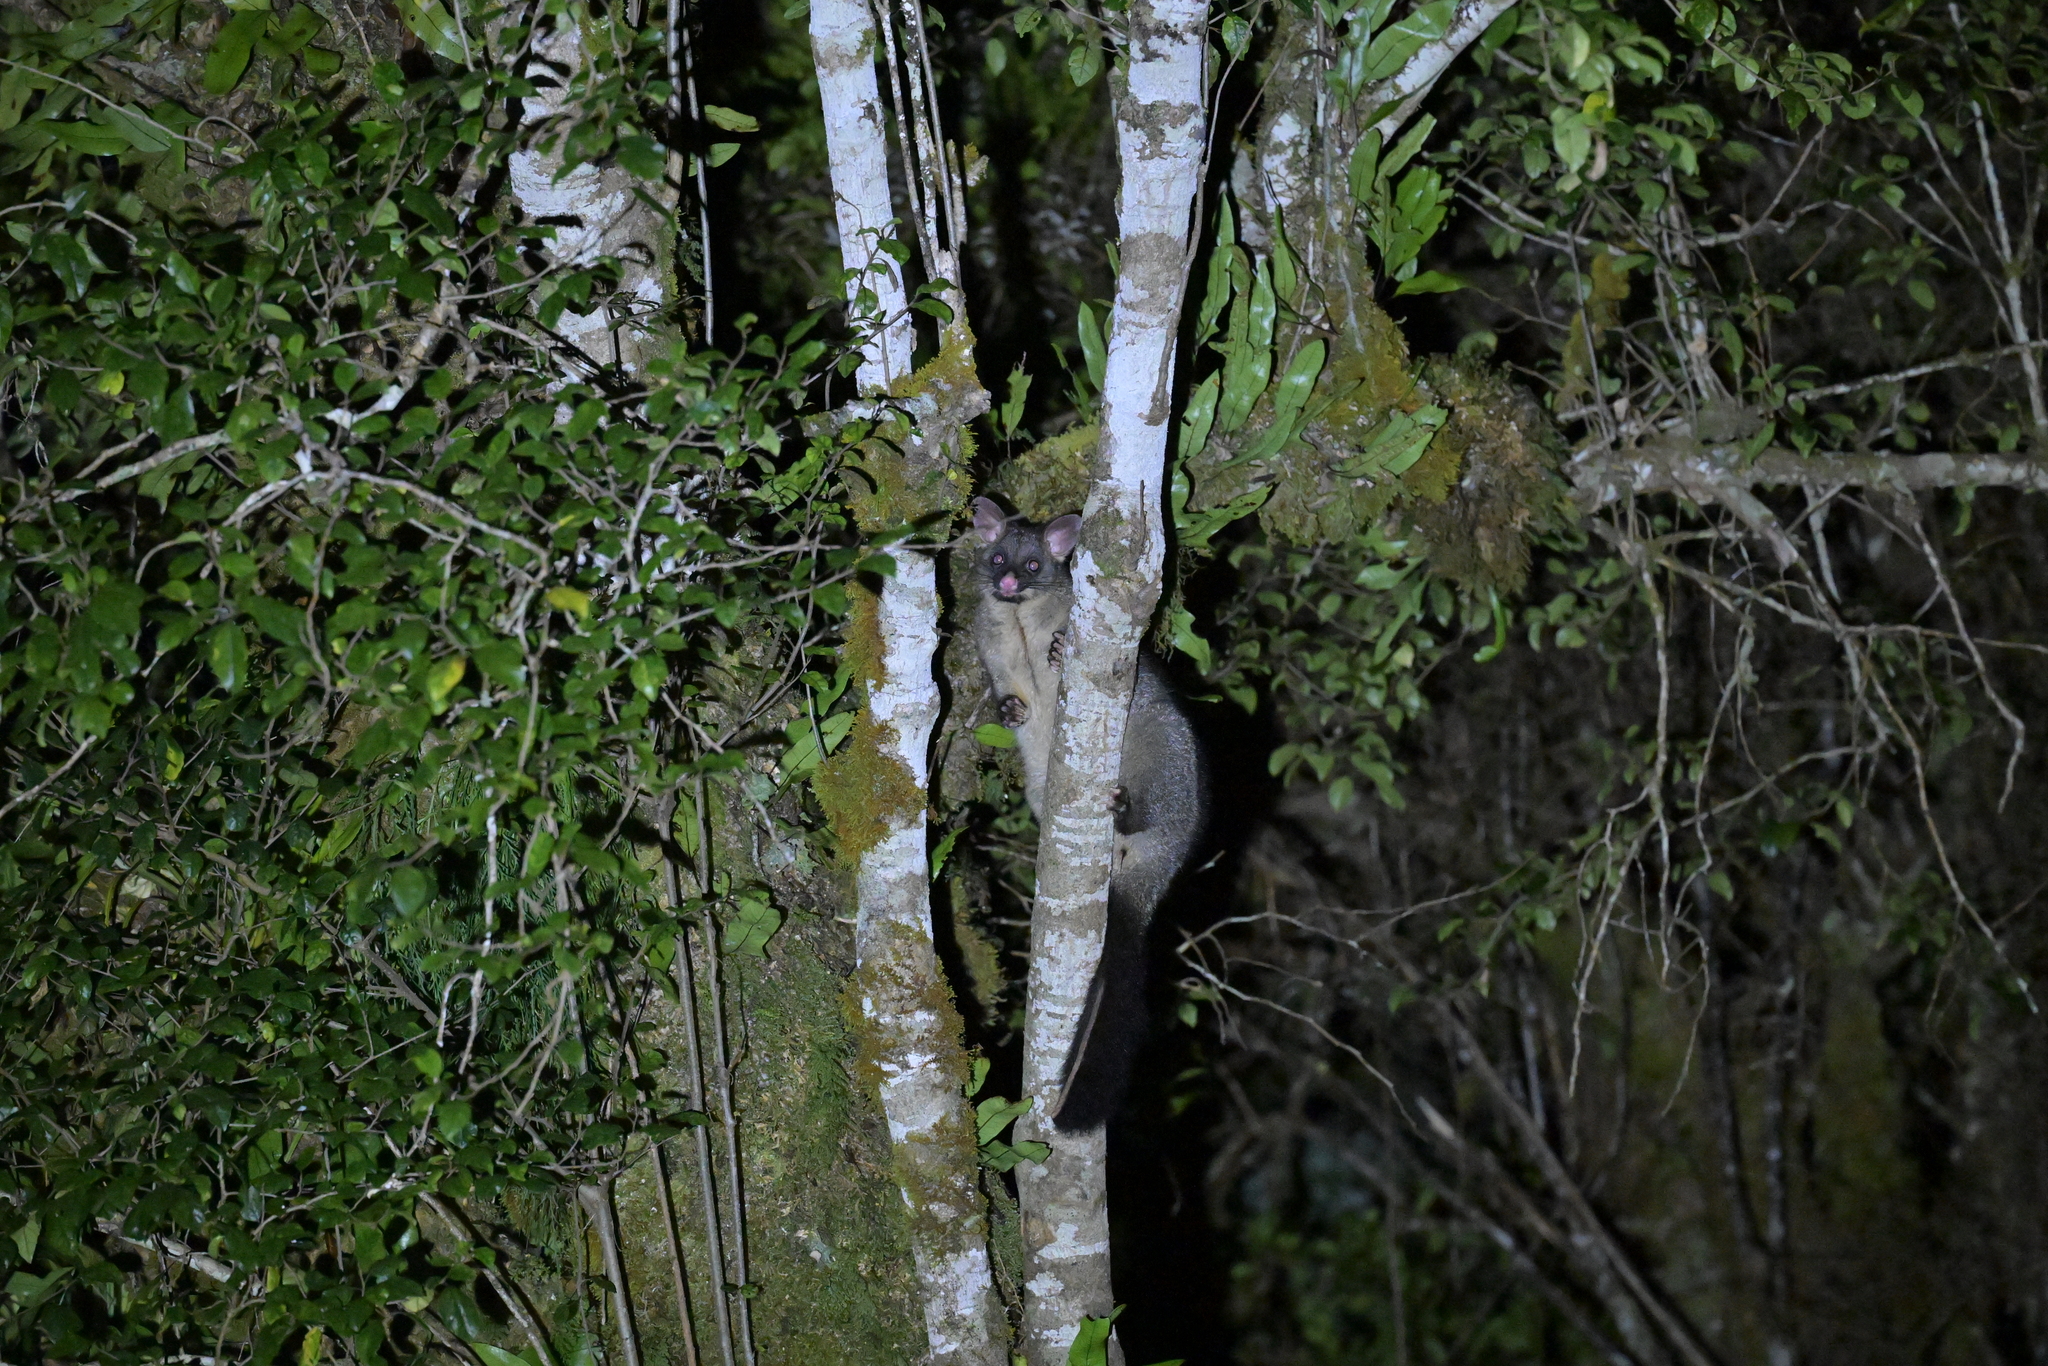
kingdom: Animalia
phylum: Chordata
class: Mammalia
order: Diprotodontia
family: Phalangeridae
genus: Trichosurus
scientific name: Trichosurus vulpecula
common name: Common brushtail
